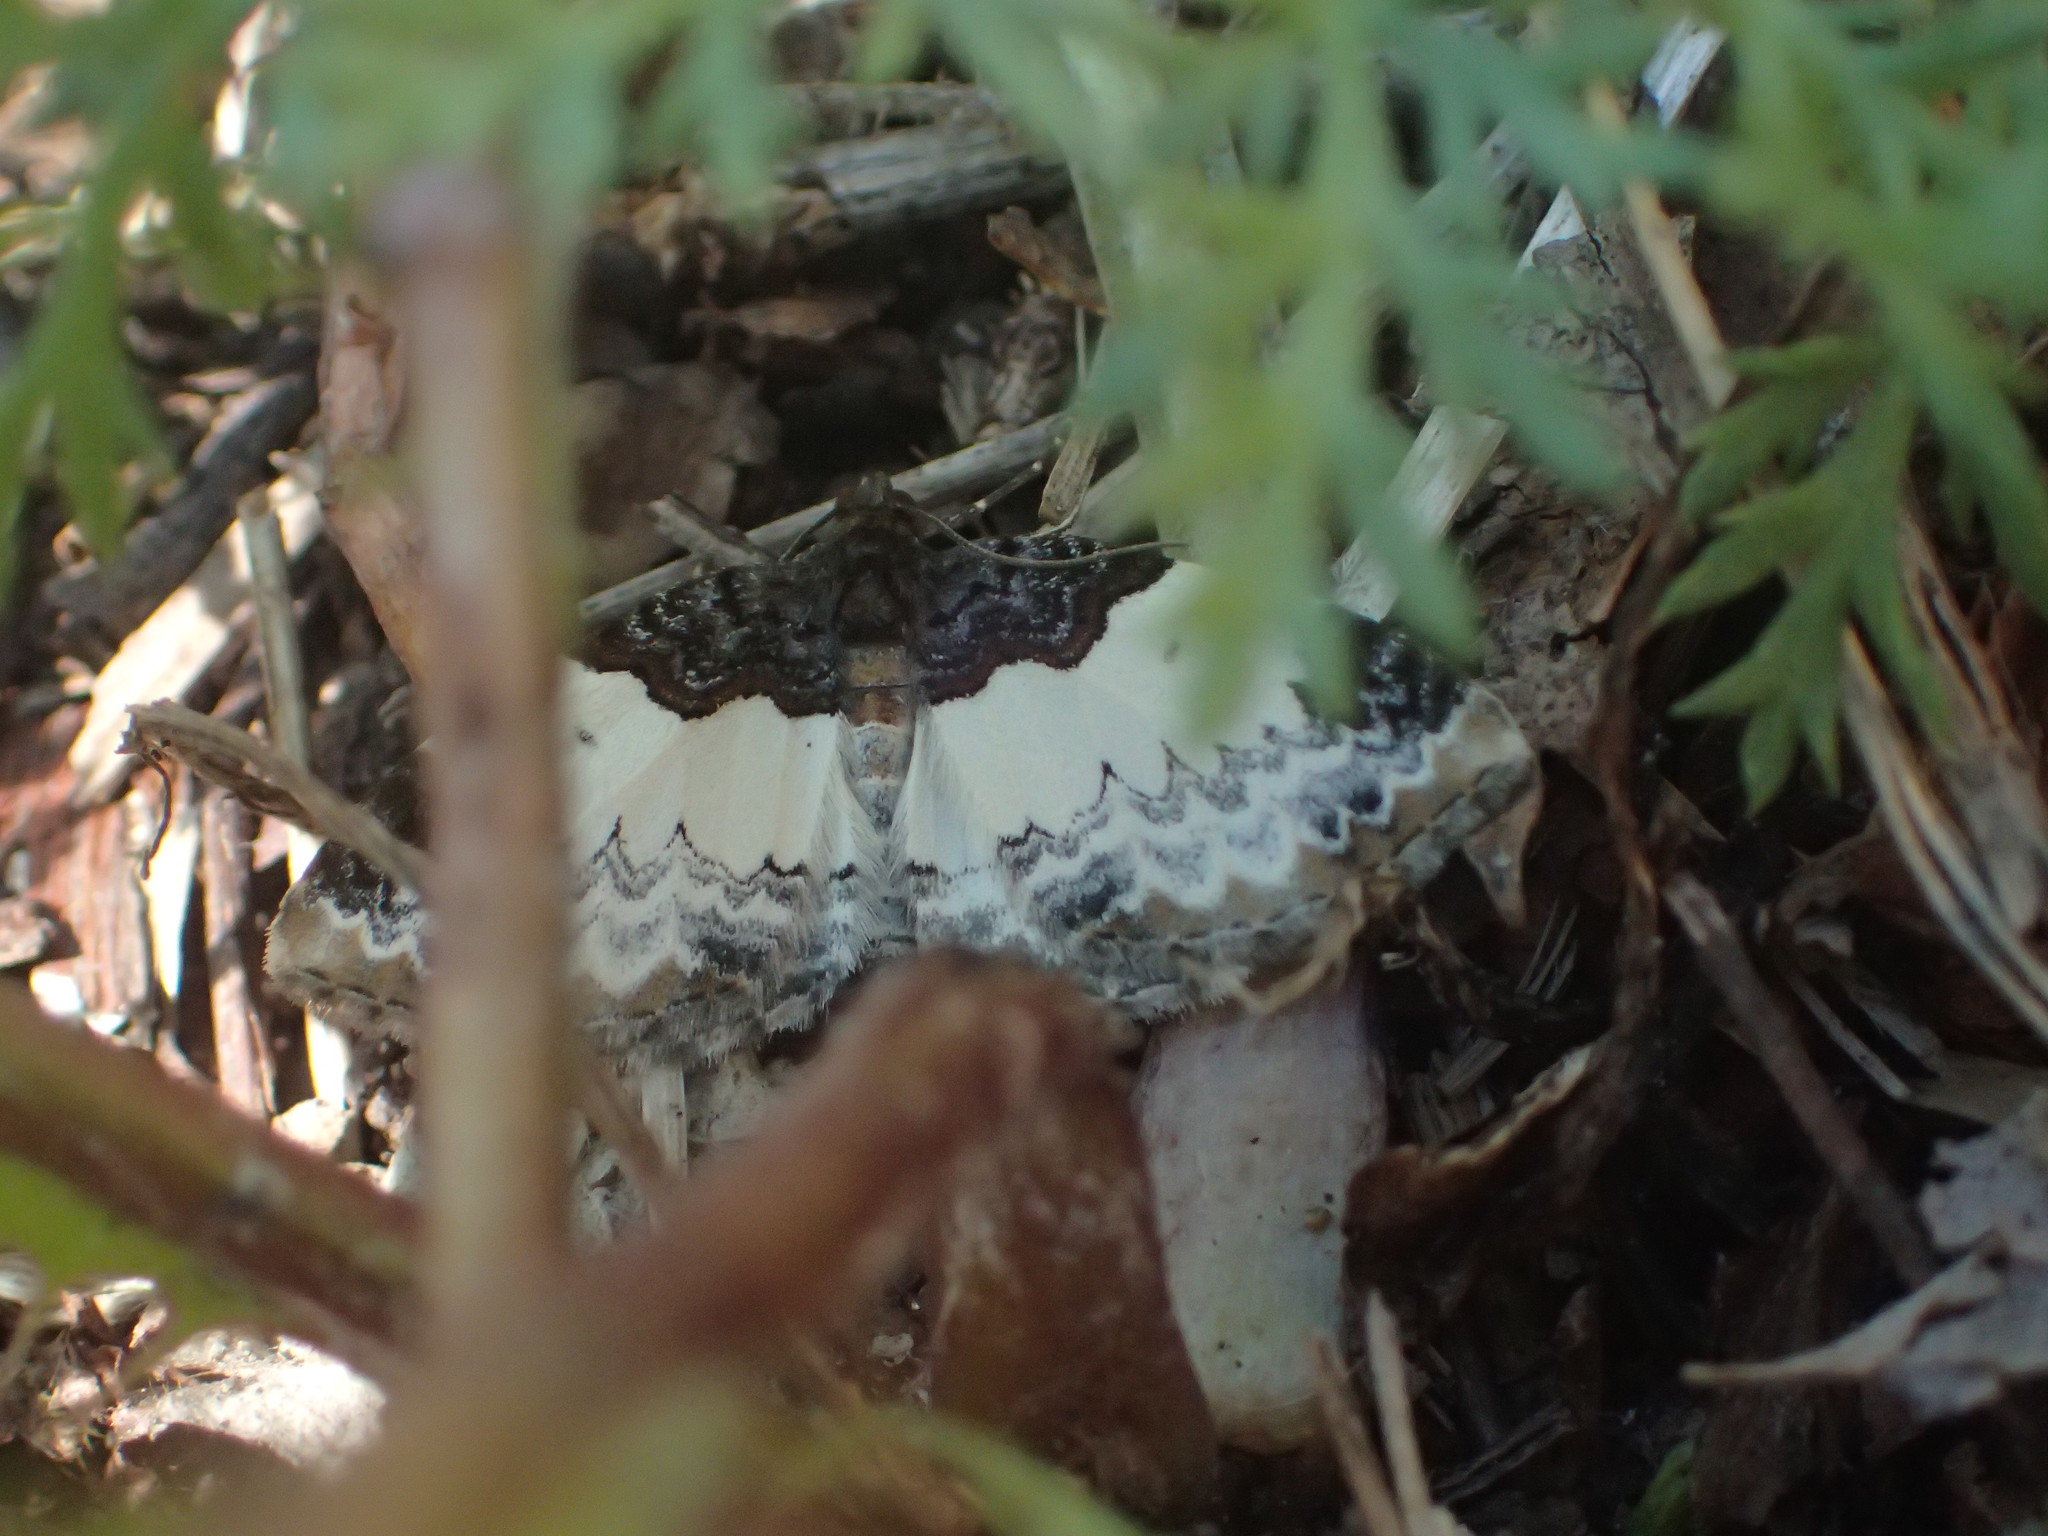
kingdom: Animalia
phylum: Arthropoda
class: Insecta
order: Lepidoptera
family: Geometridae
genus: Mesoleuca
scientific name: Mesoleuca ruficillata
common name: White-ribboned carpet moth
